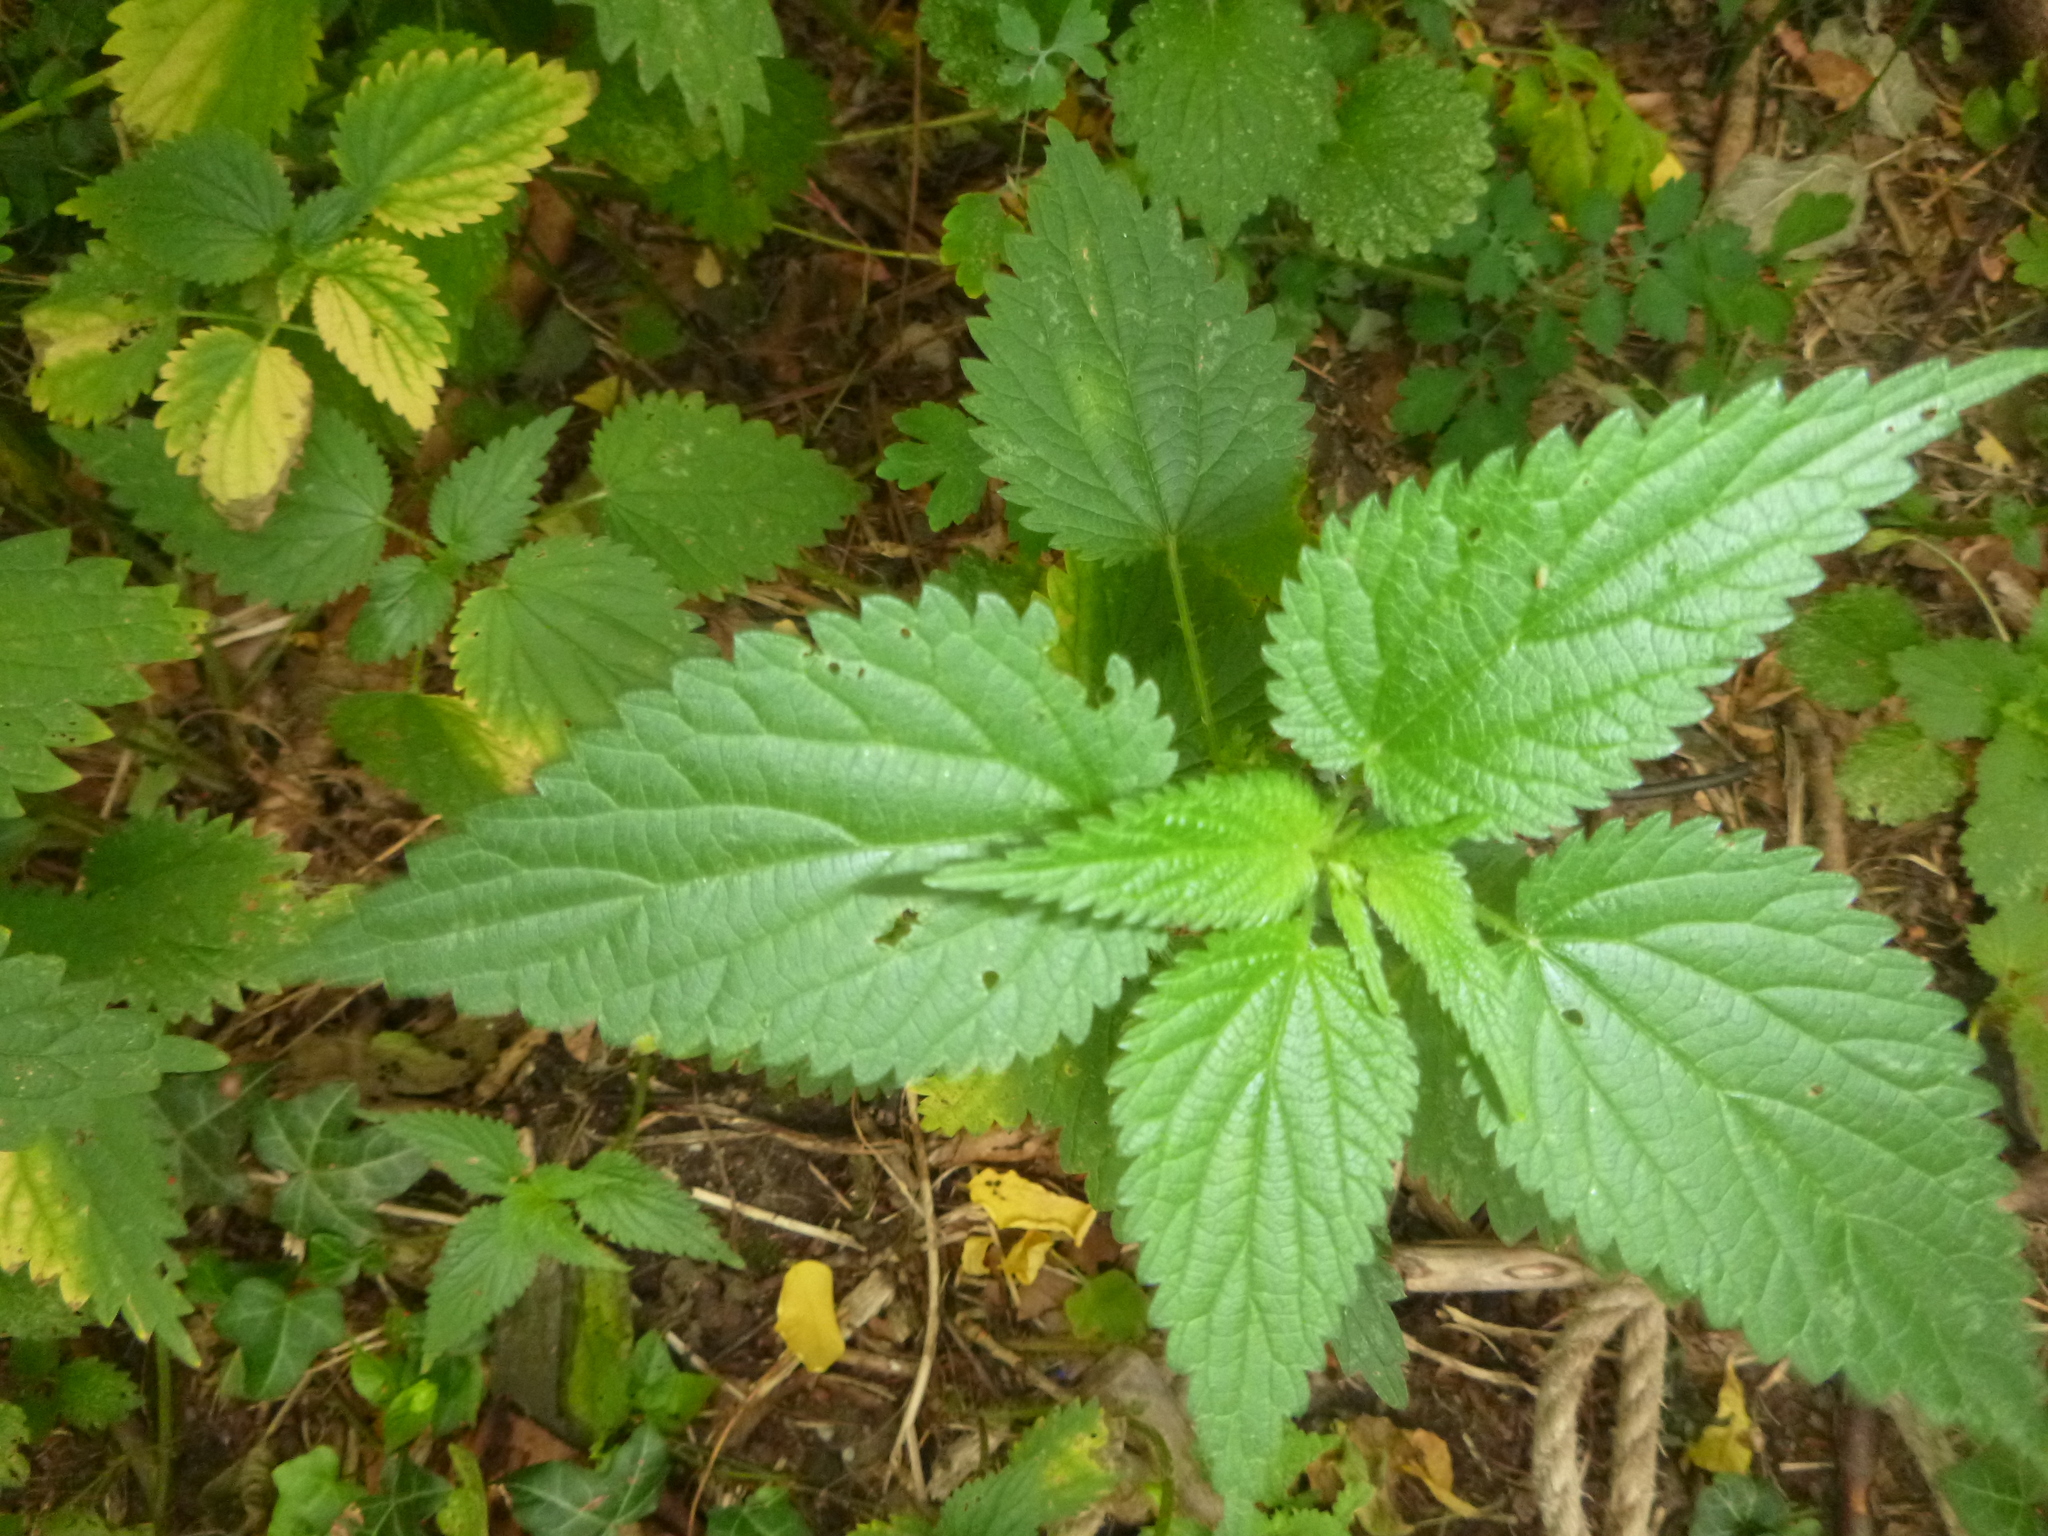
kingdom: Plantae
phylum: Tracheophyta
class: Magnoliopsida
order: Rosales
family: Urticaceae
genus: Urtica
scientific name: Urtica dioica
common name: Common nettle
